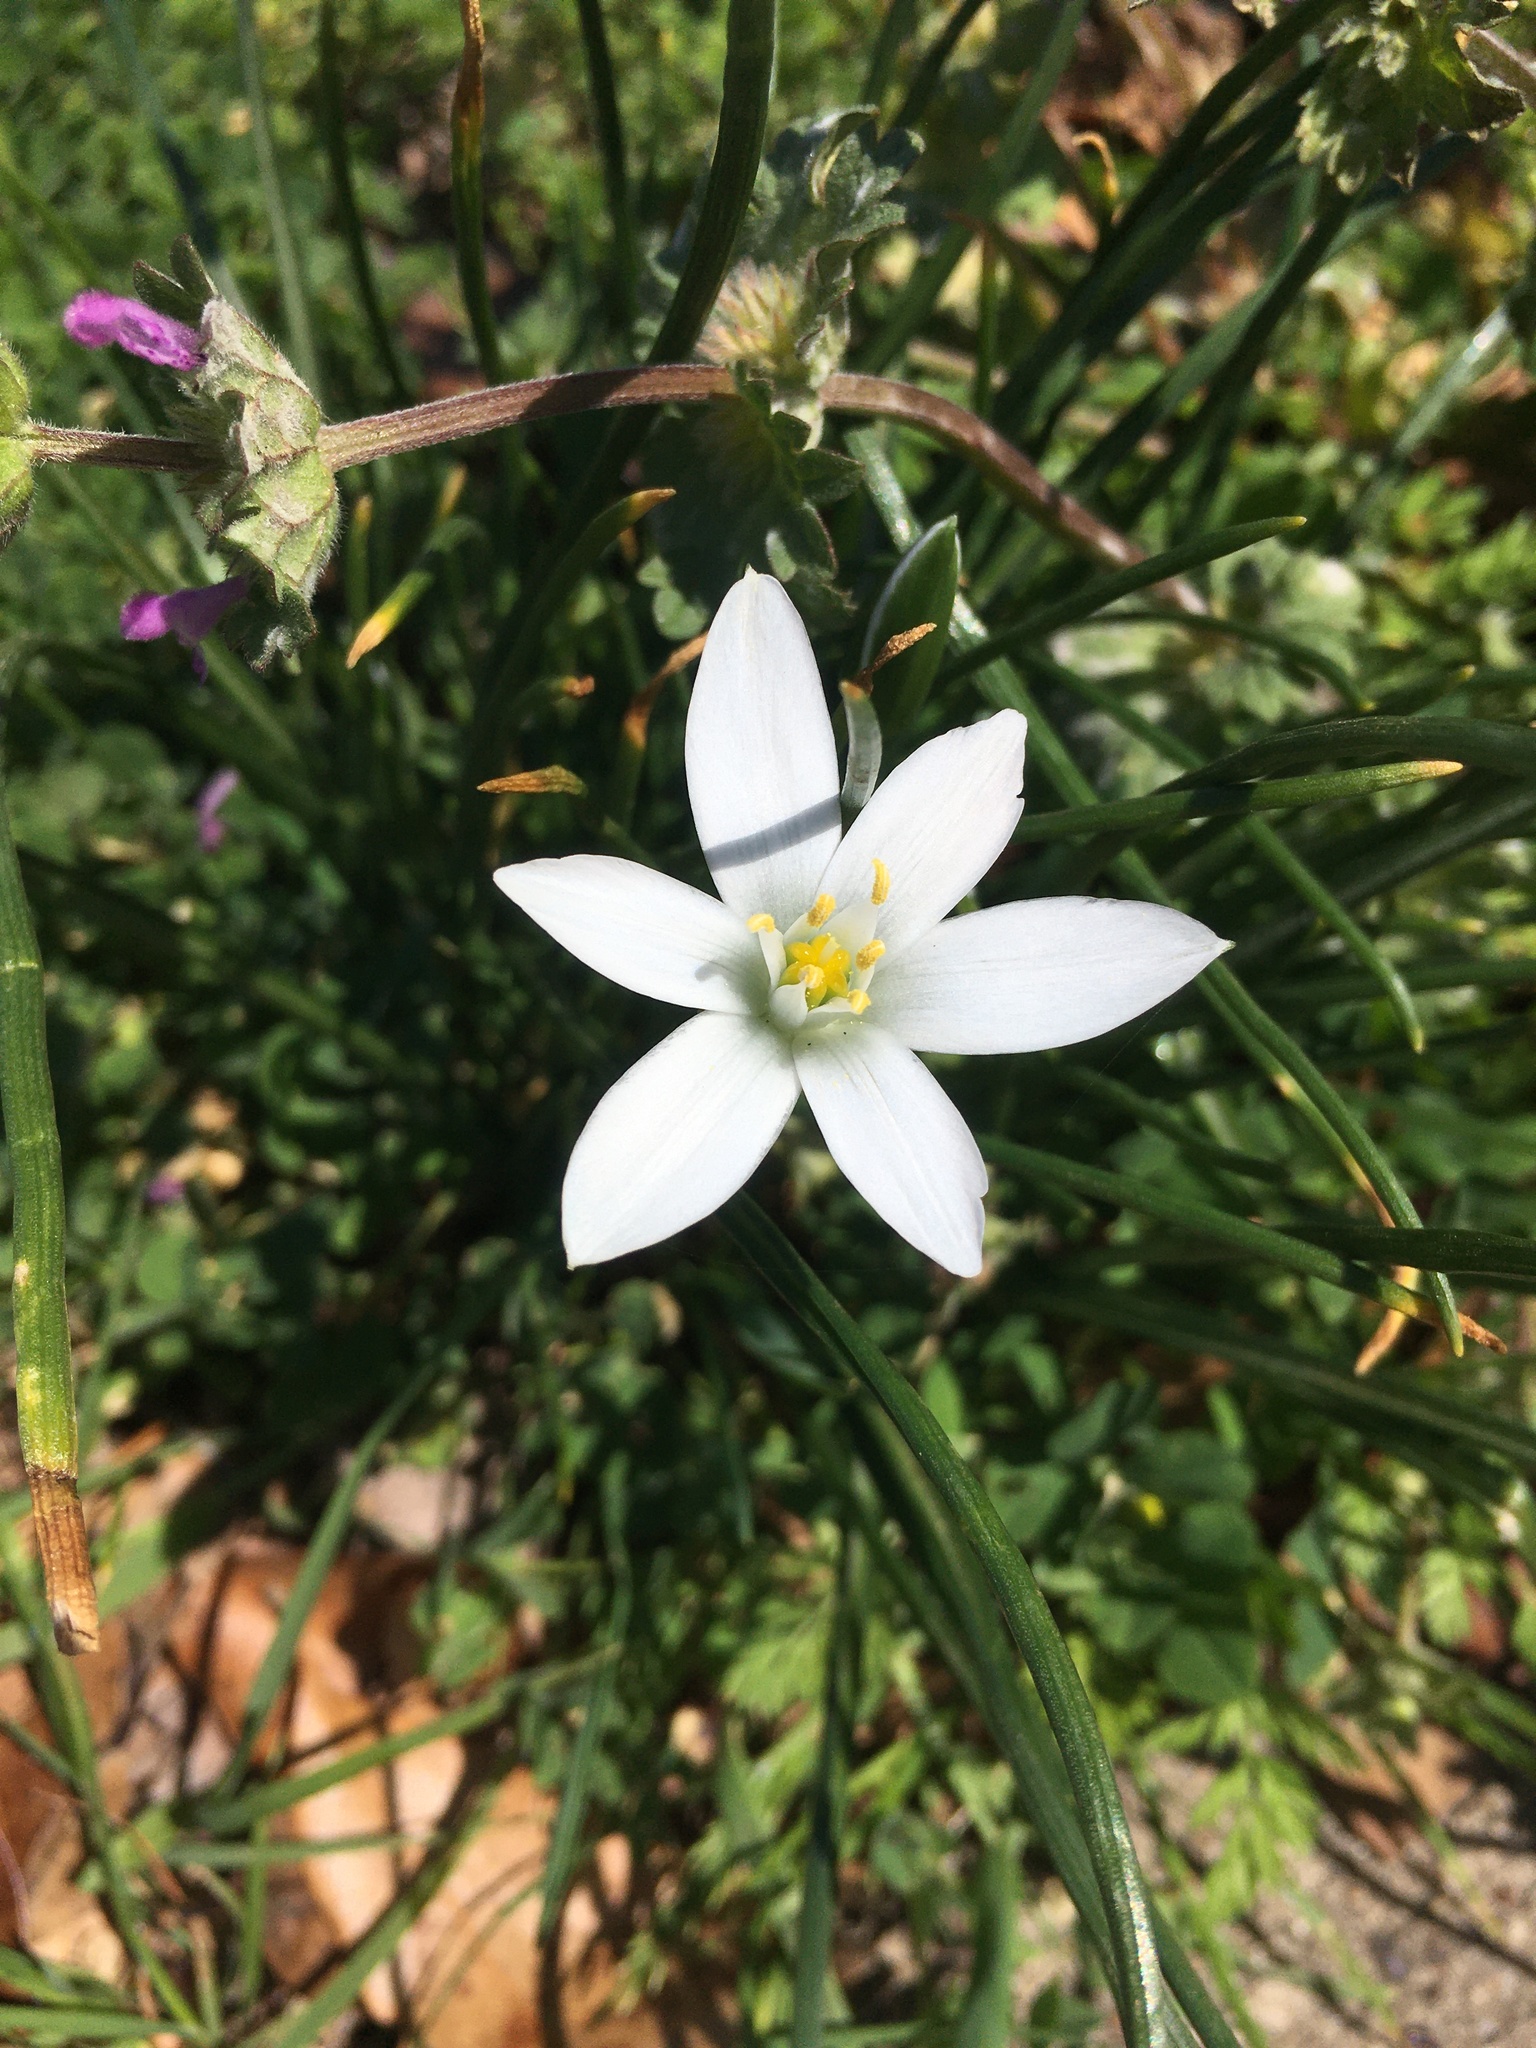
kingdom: Plantae
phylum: Tracheophyta
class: Liliopsida
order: Asparagales
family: Asparagaceae
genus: Ornithogalum
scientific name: Ornithogalum umbellatum
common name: Garden star-of-bethlehem
